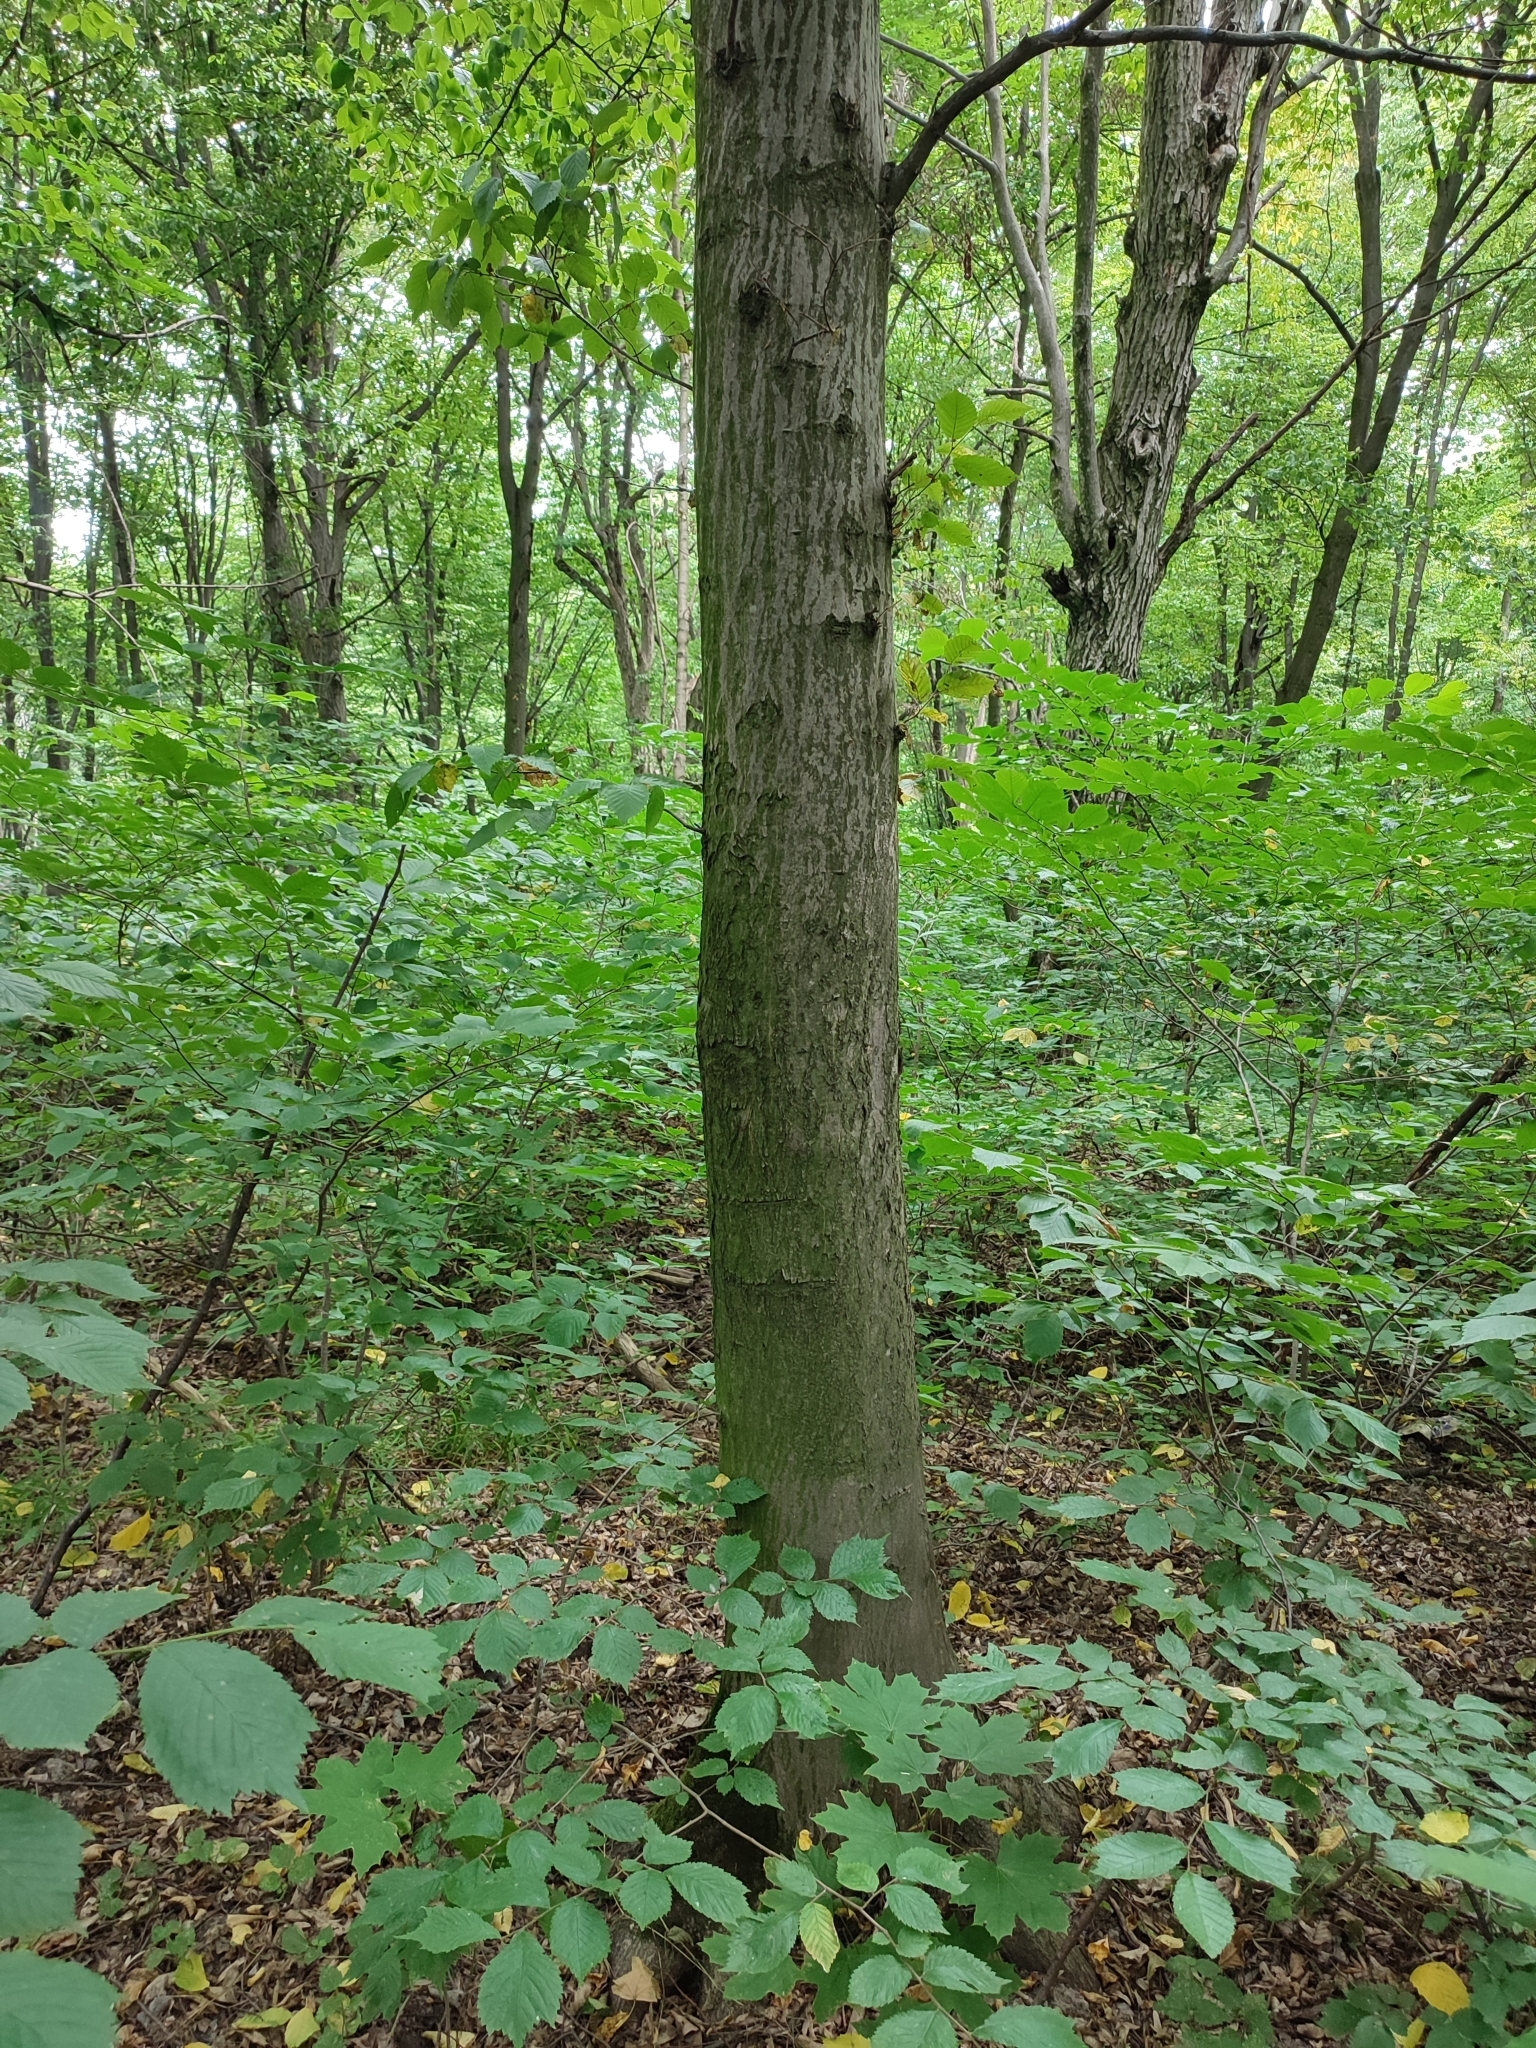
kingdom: Plantae
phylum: Tracheophyta
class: Magnoliopsida
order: Fagales
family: Betulaceae
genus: Carpinus
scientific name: Carpinus betulus
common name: Hornbeam
